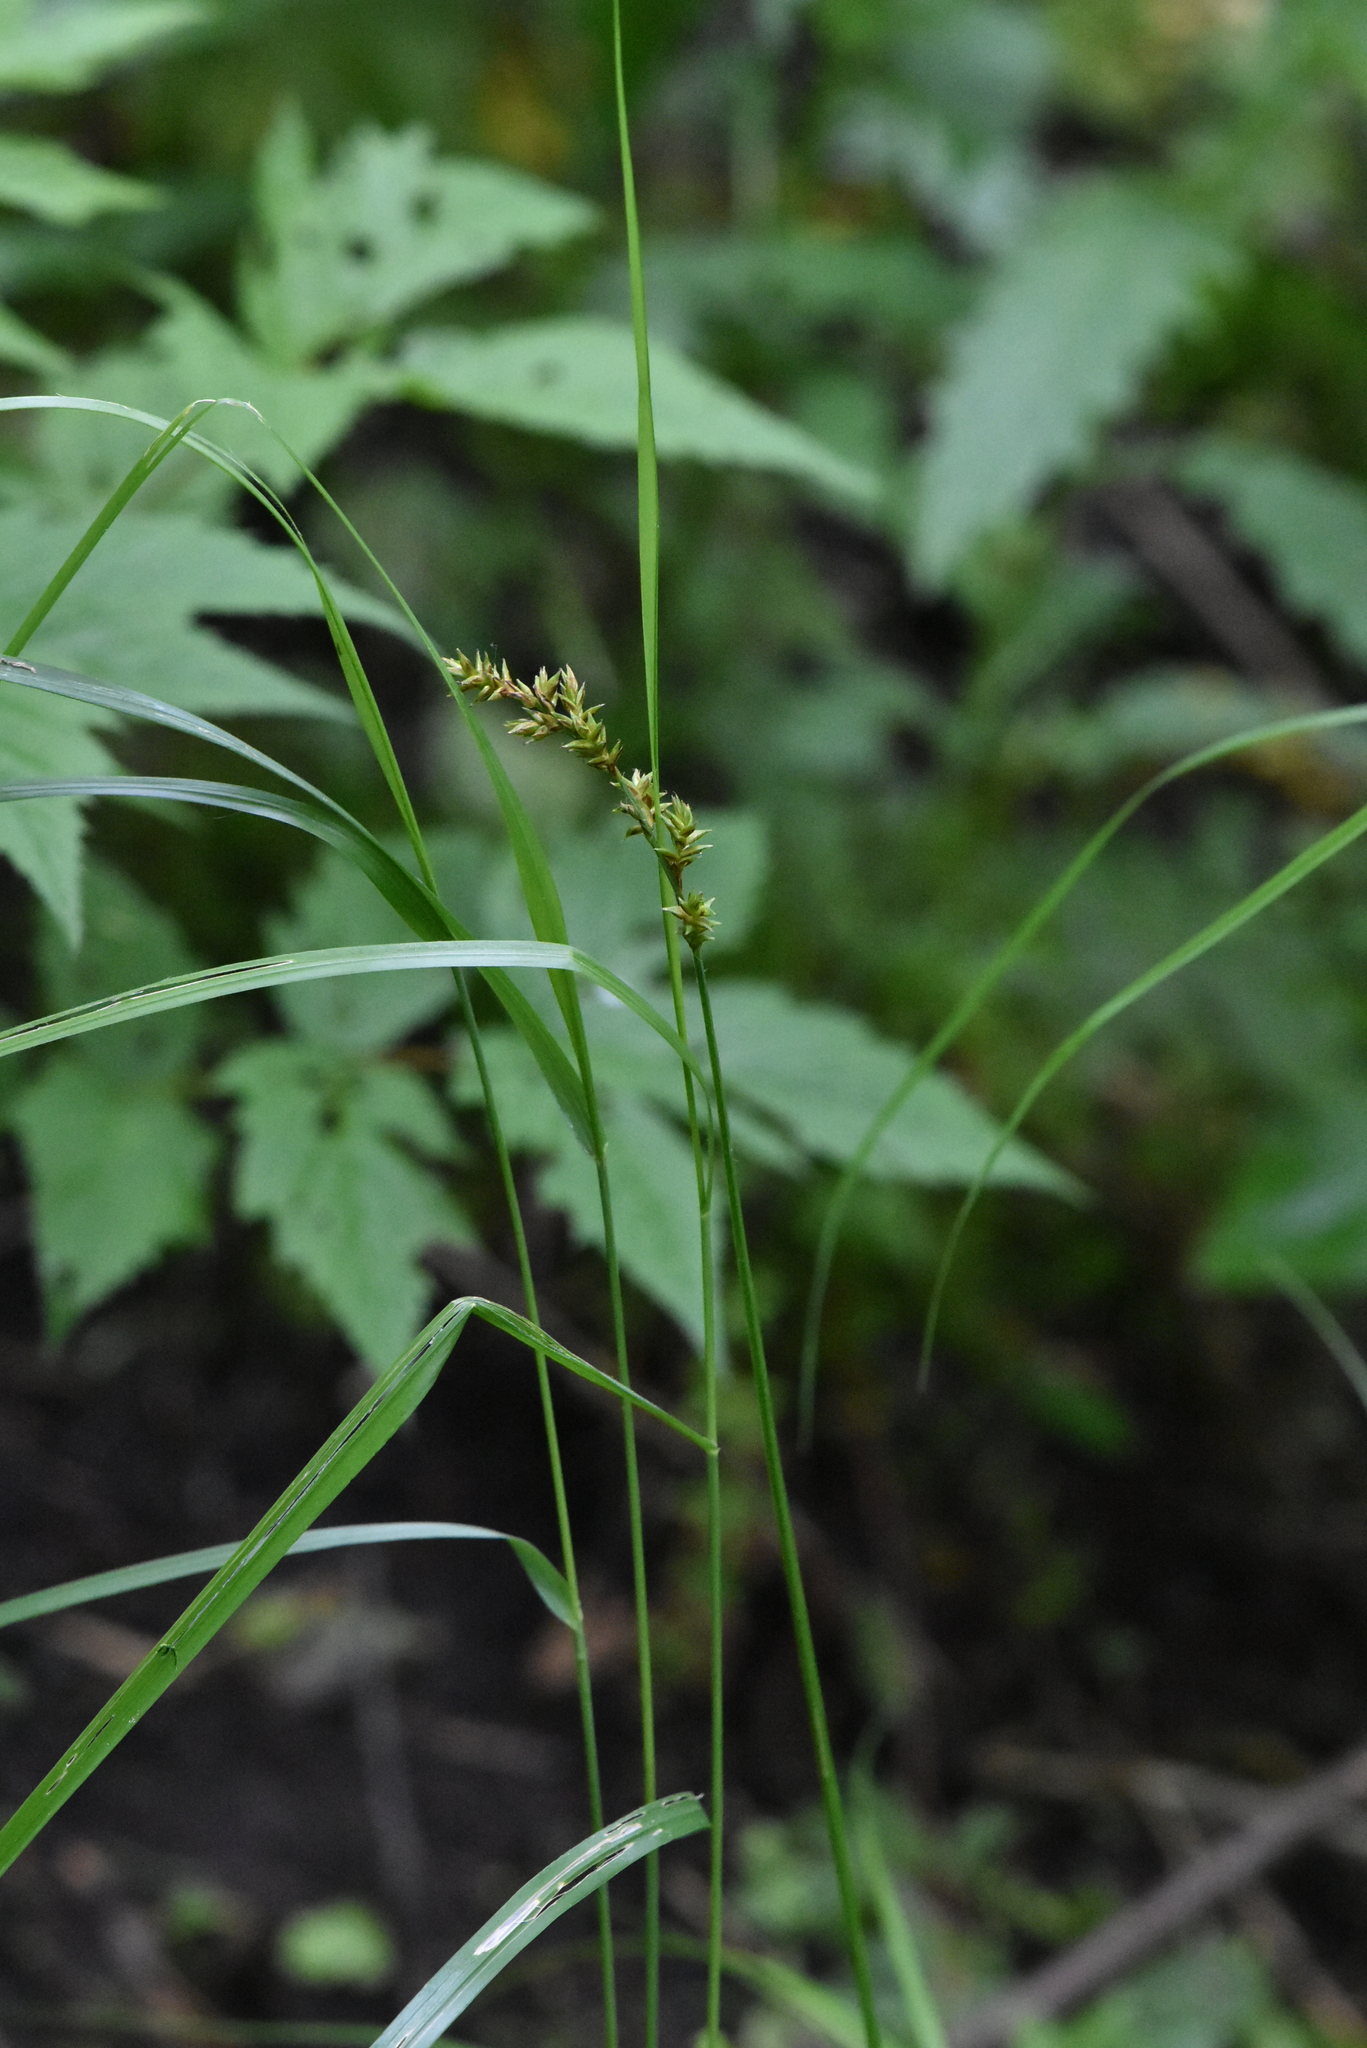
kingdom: Plantae
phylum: Tracheophyta
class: Liliopsida
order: Poales
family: Cyperaceae
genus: Carex
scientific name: Carex elongata
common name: Elongated sedge
